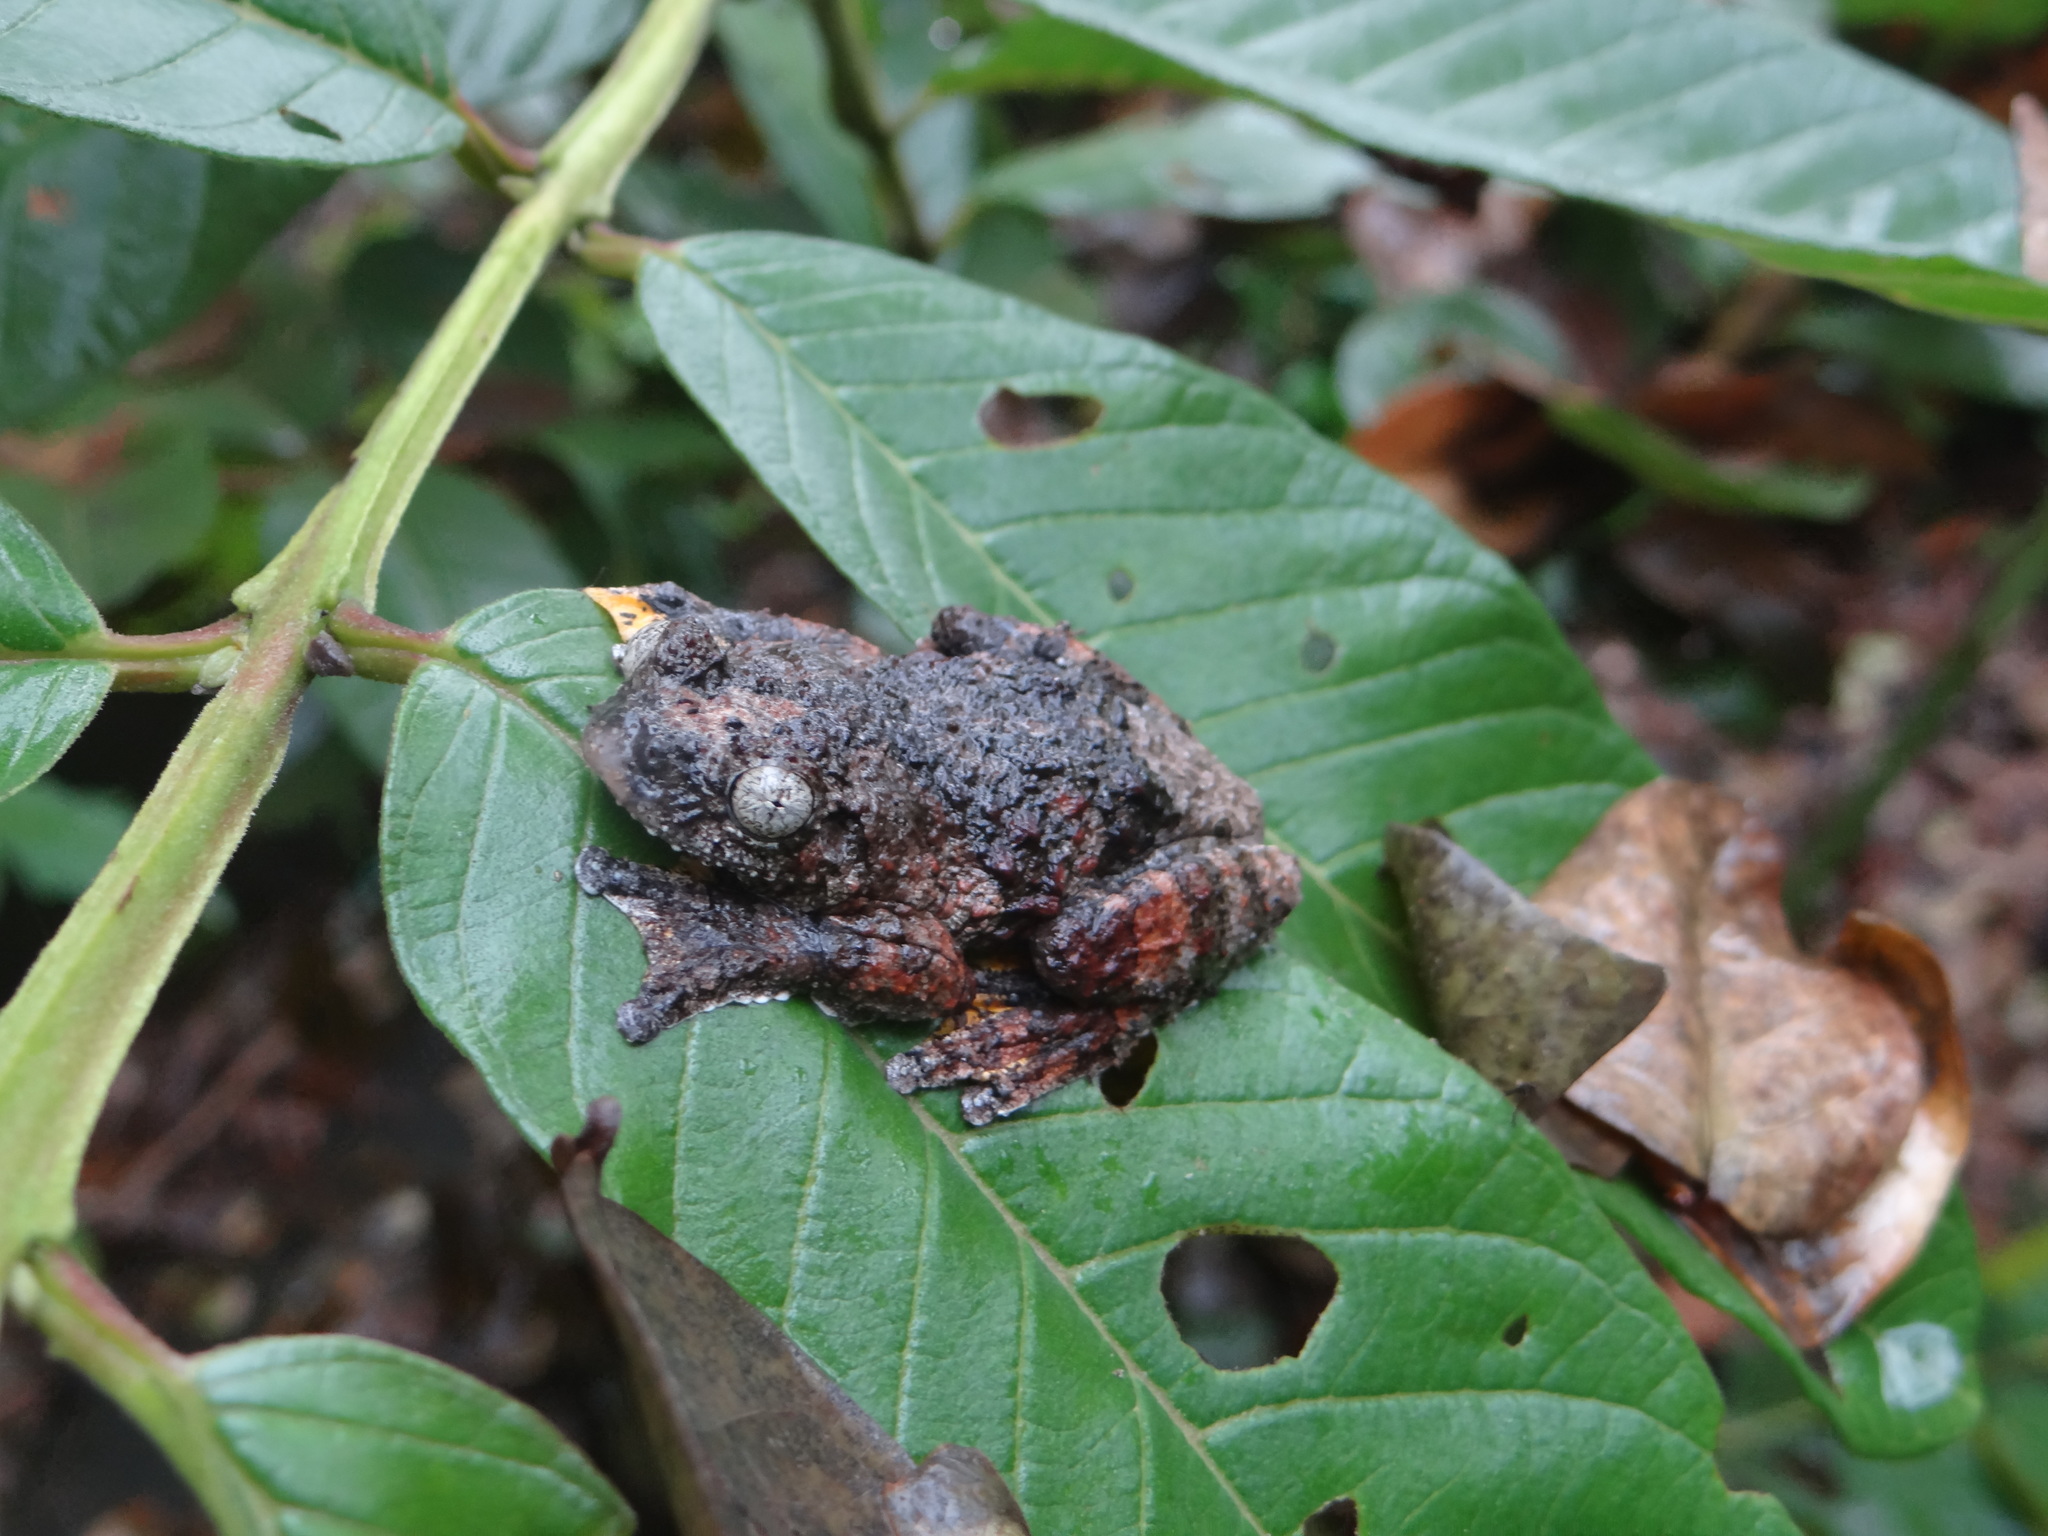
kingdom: Animalia
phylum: Chordata
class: Amphibia
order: Anura
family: Hylidae
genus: Dendropsophus
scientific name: Dendropsophus marmoratus
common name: Marbled treefrog
